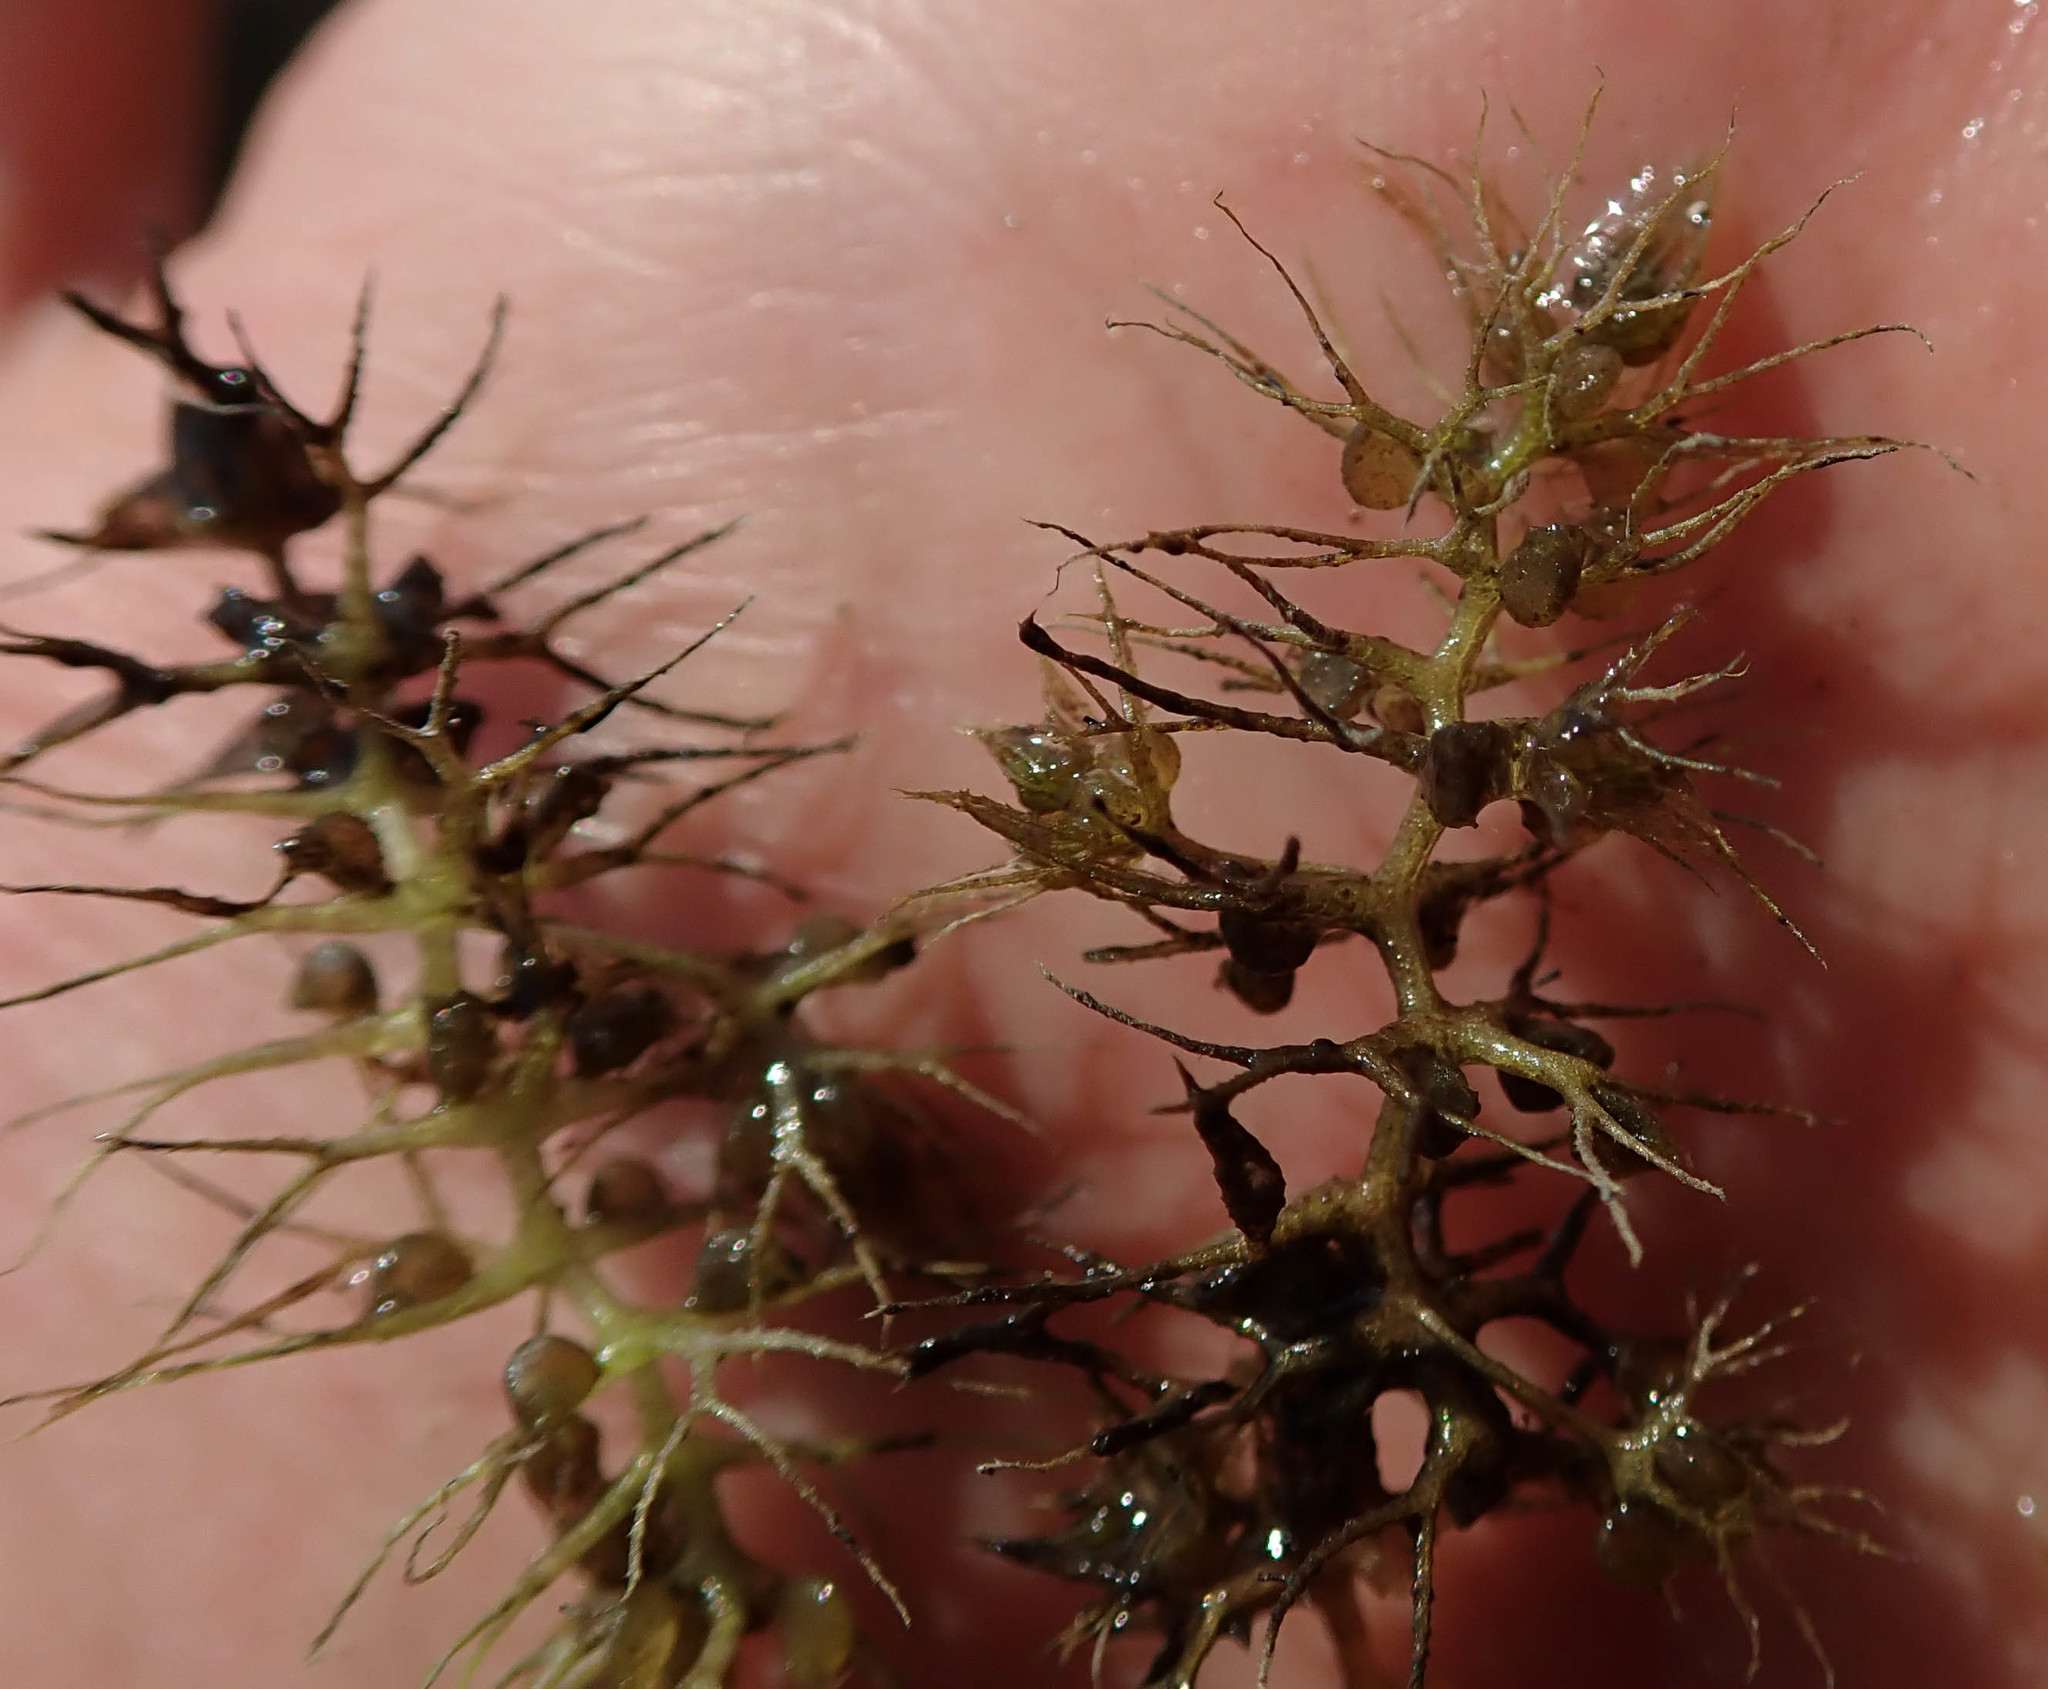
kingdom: Plantae
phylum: Tracheophyta
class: Magnoliopsida
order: Lamiales
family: Lentibulariaceae
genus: Utricularia
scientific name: Utricularia raynalii
